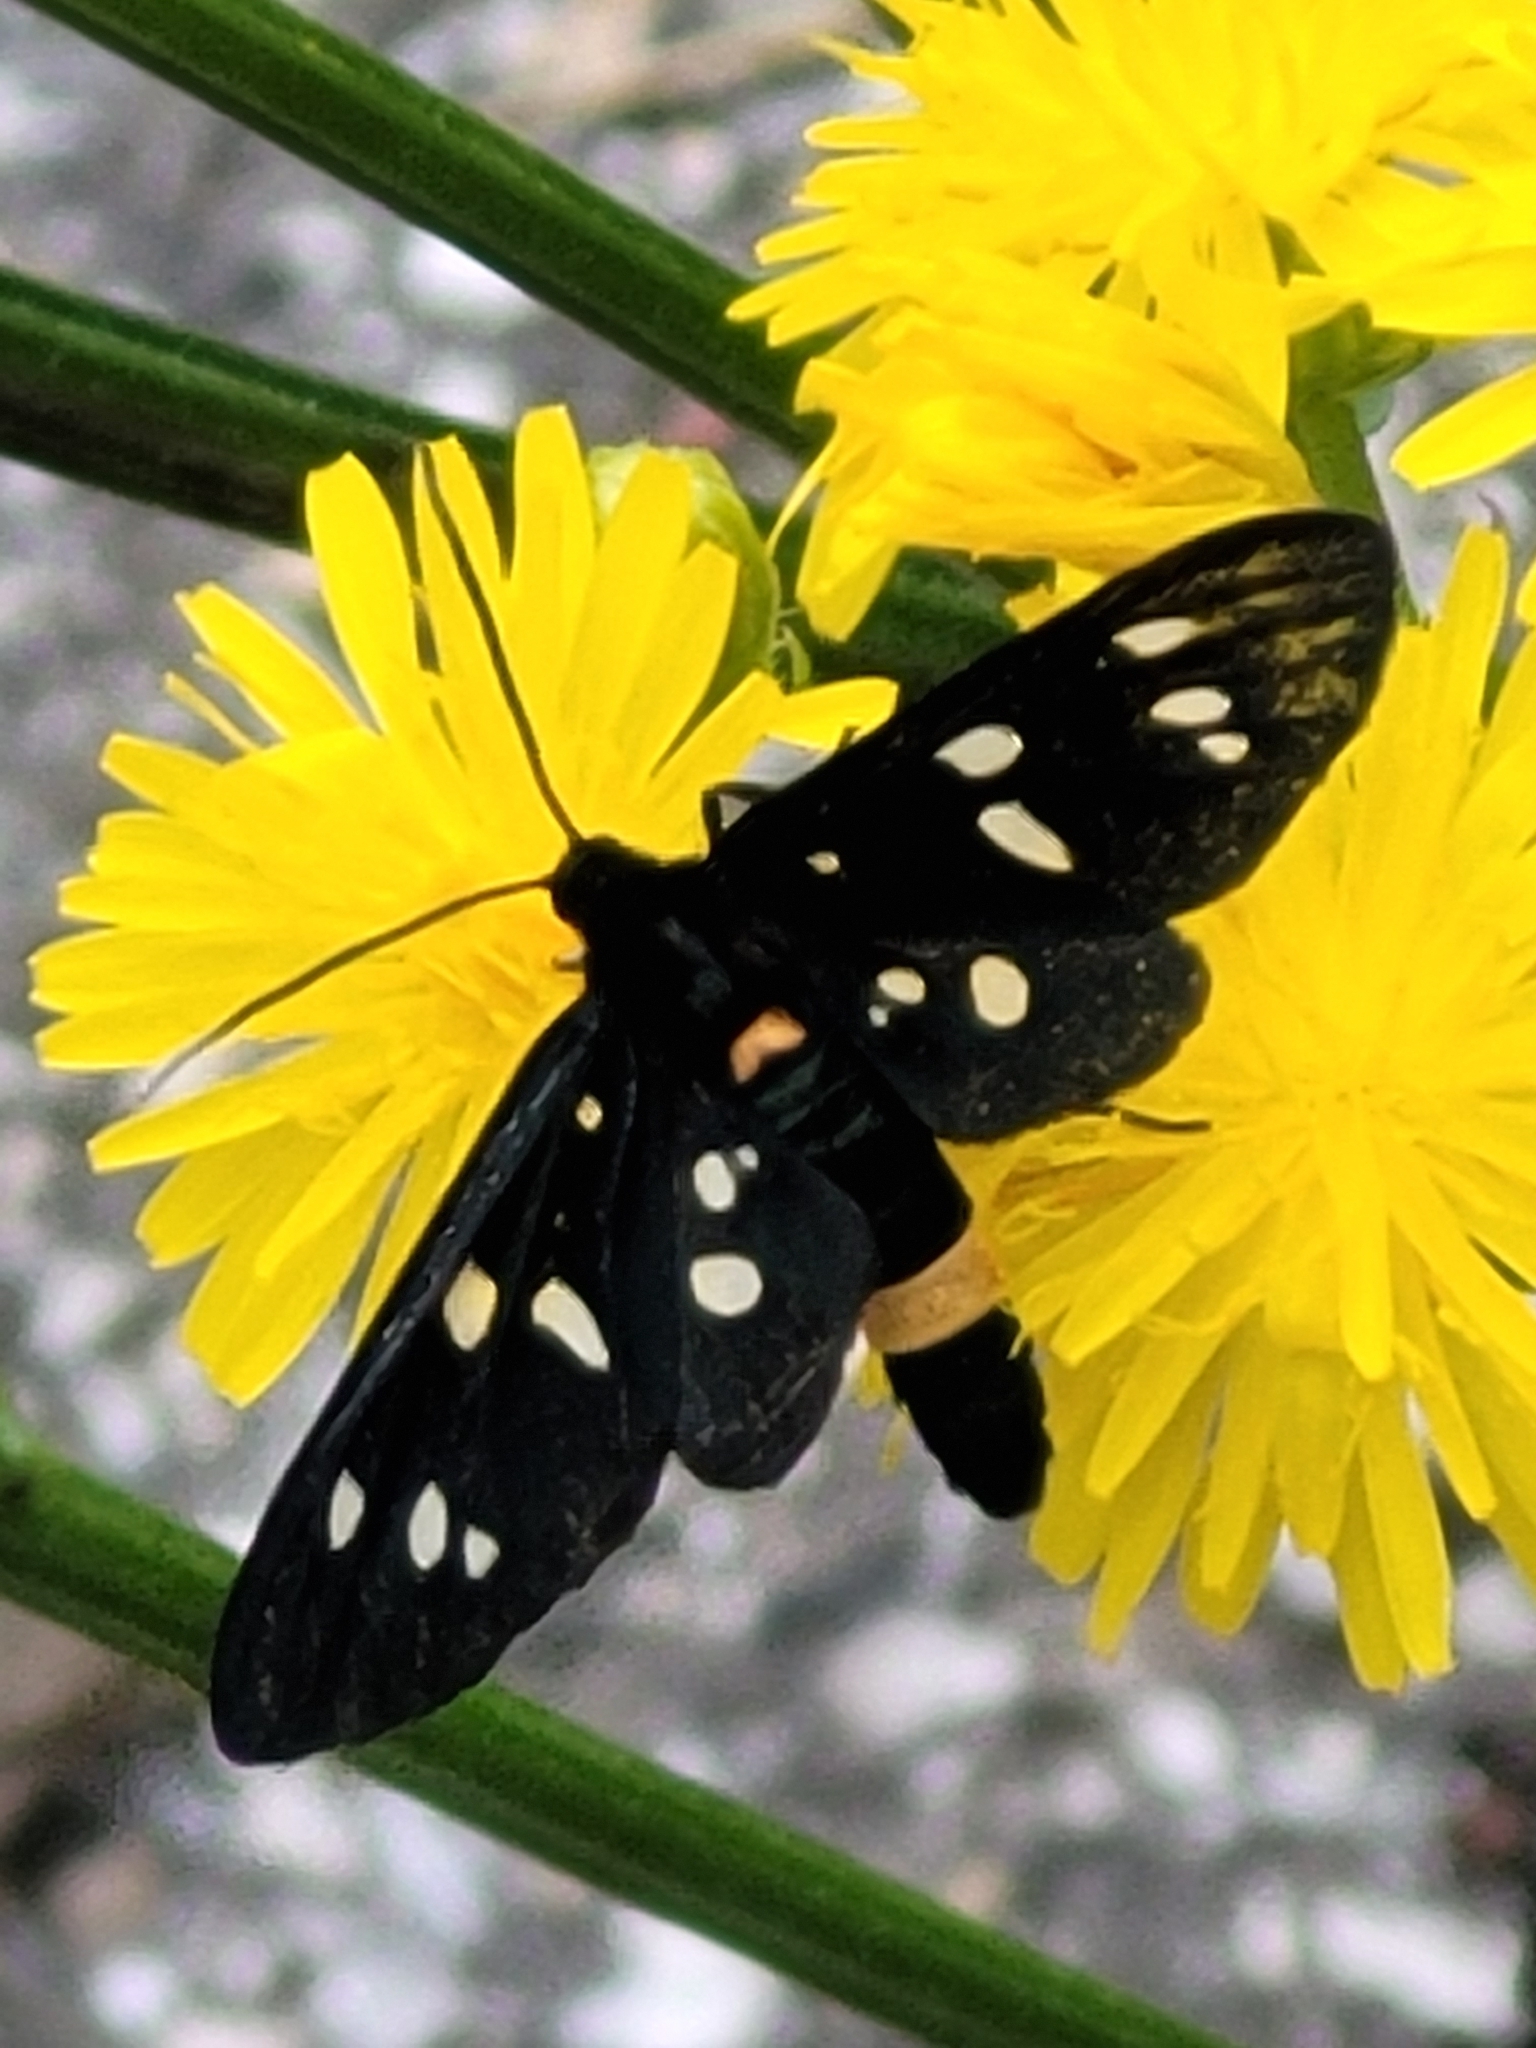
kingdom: Animalia
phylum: Arthropoda
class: Insecta
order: Lepidoptera
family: Erebidae
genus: Amata
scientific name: Amata phegea
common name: Nine-spotted
